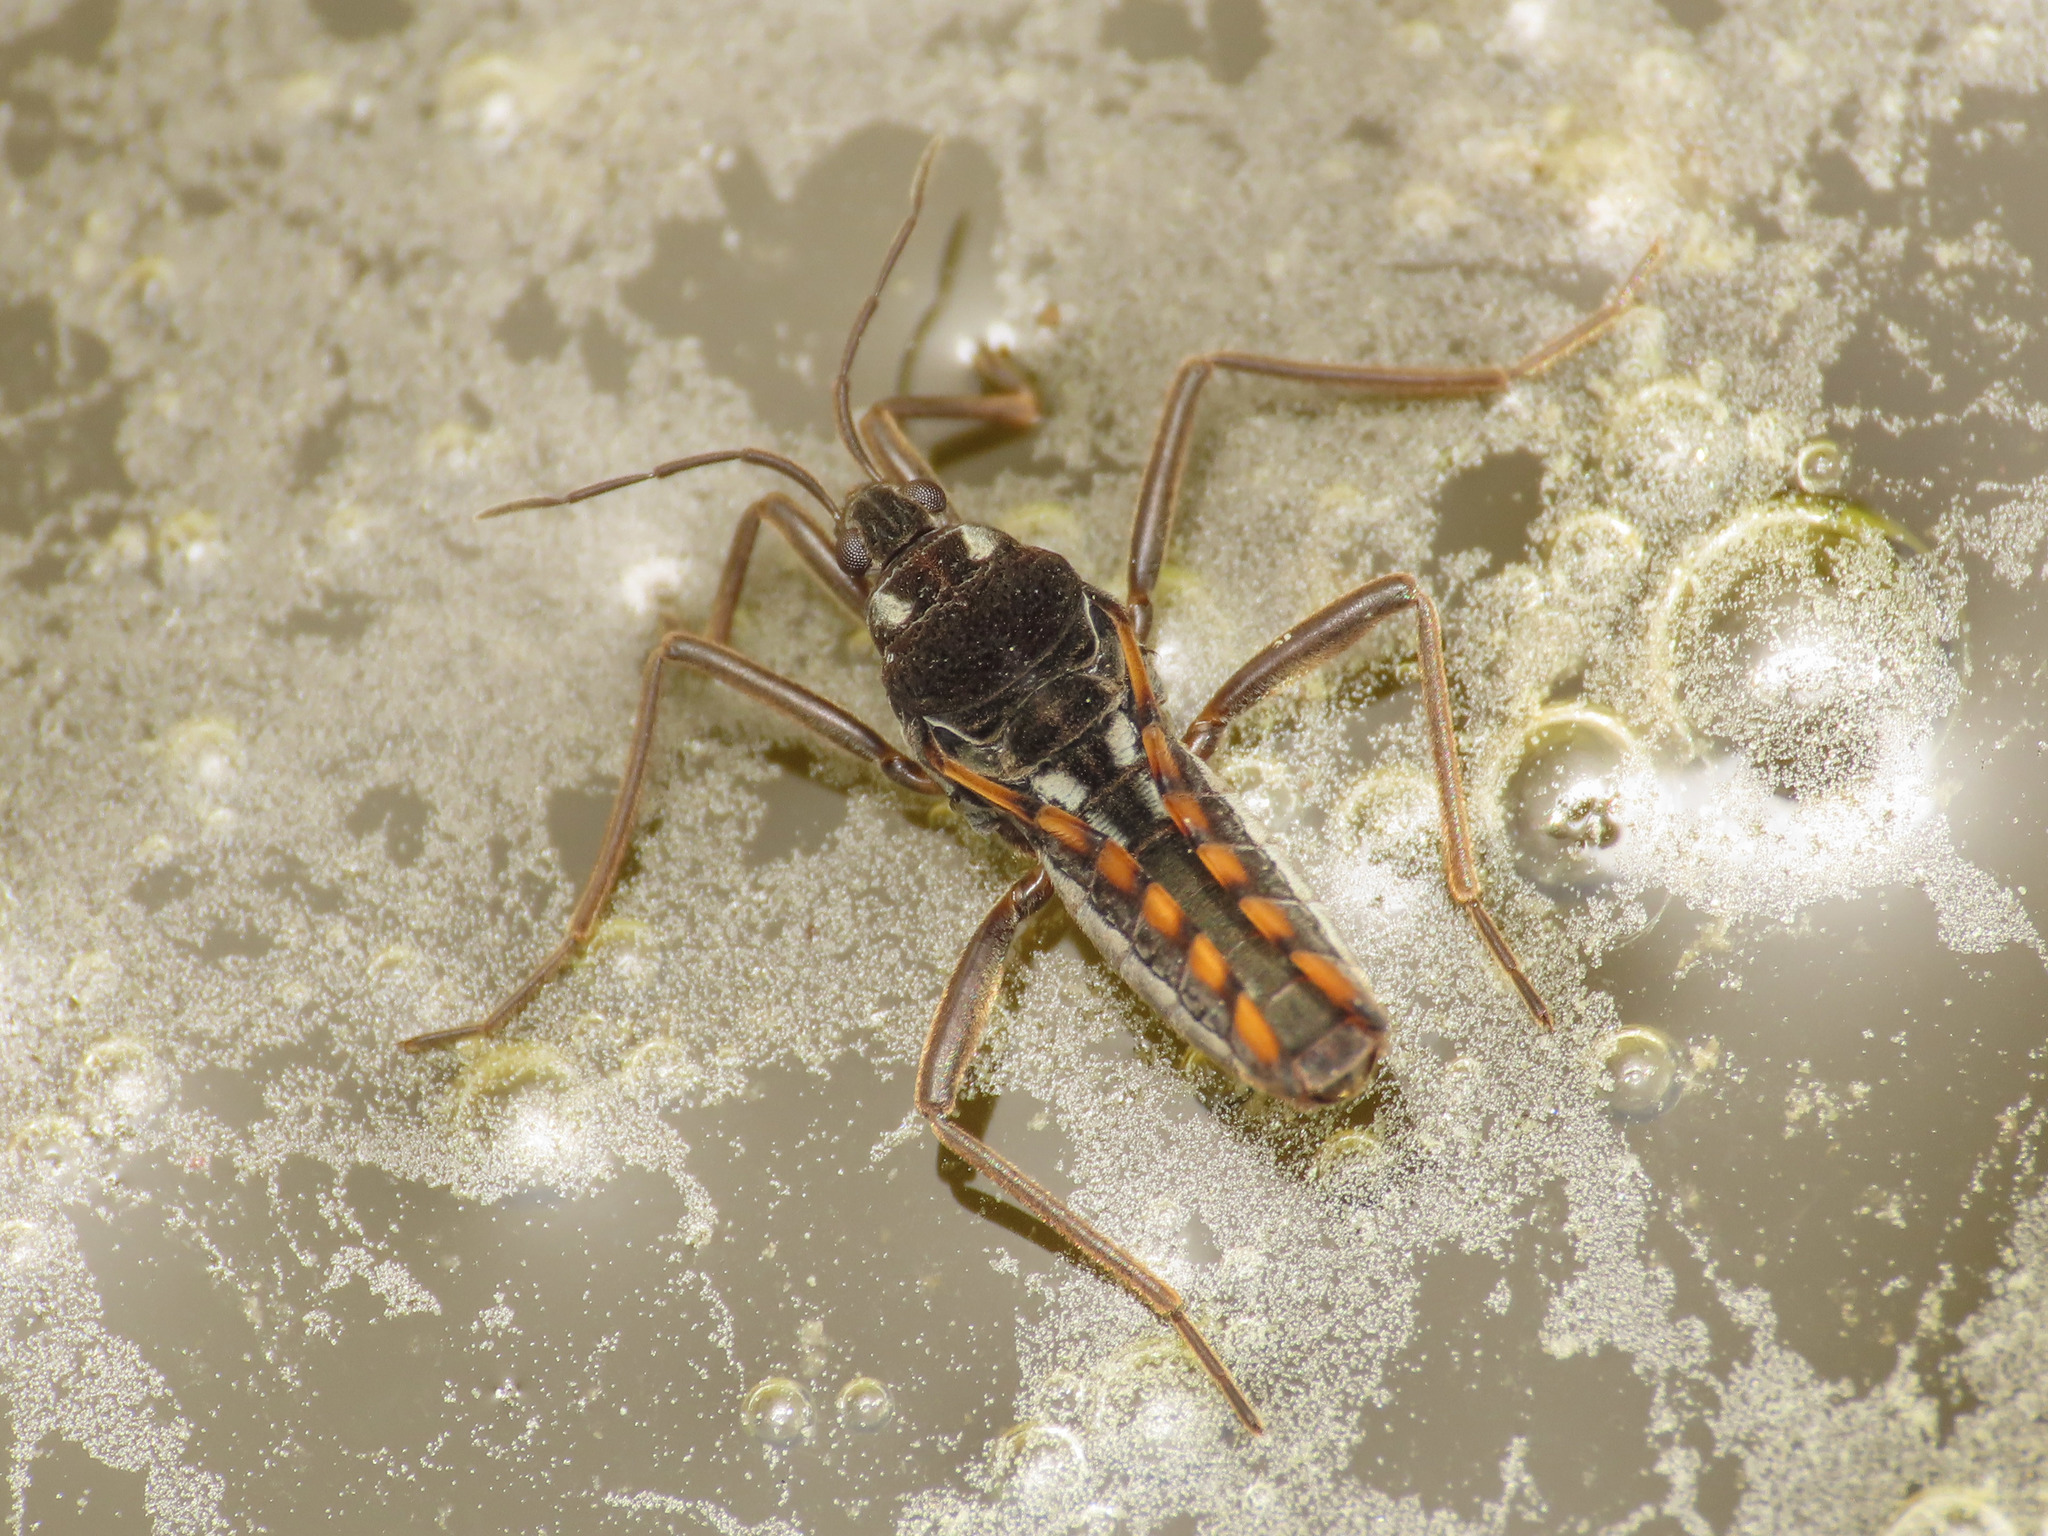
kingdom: Animalia
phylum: Arthropoda
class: Insecta
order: Hemiptera
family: Veliidae
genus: Velia
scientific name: Velia gridellii
